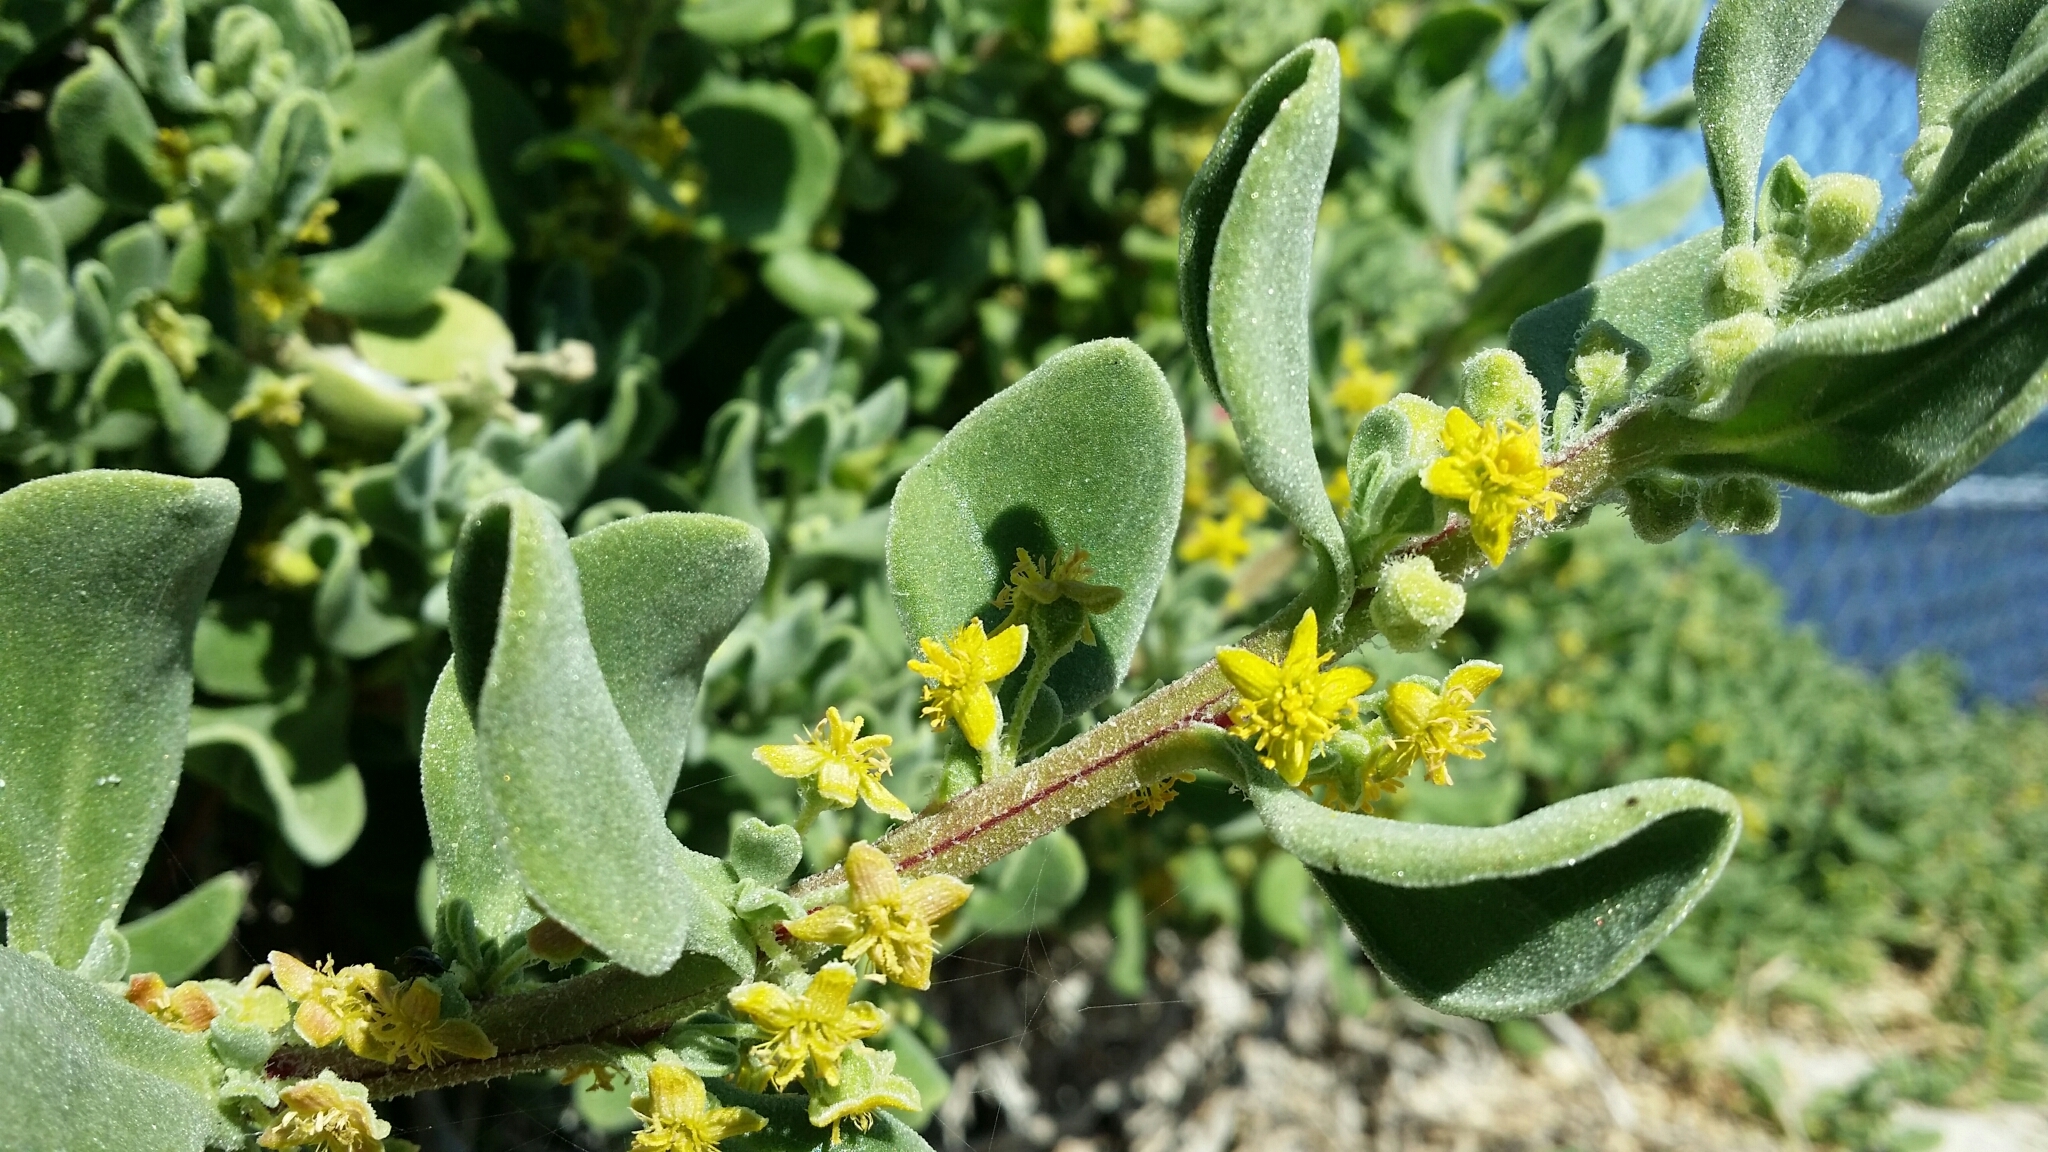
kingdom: Plantae
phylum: Tracheophyta
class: Magnoliopsida
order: Caryophyllales
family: Aizoaceae
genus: Tetragonia
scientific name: Tetragonia decumbens
